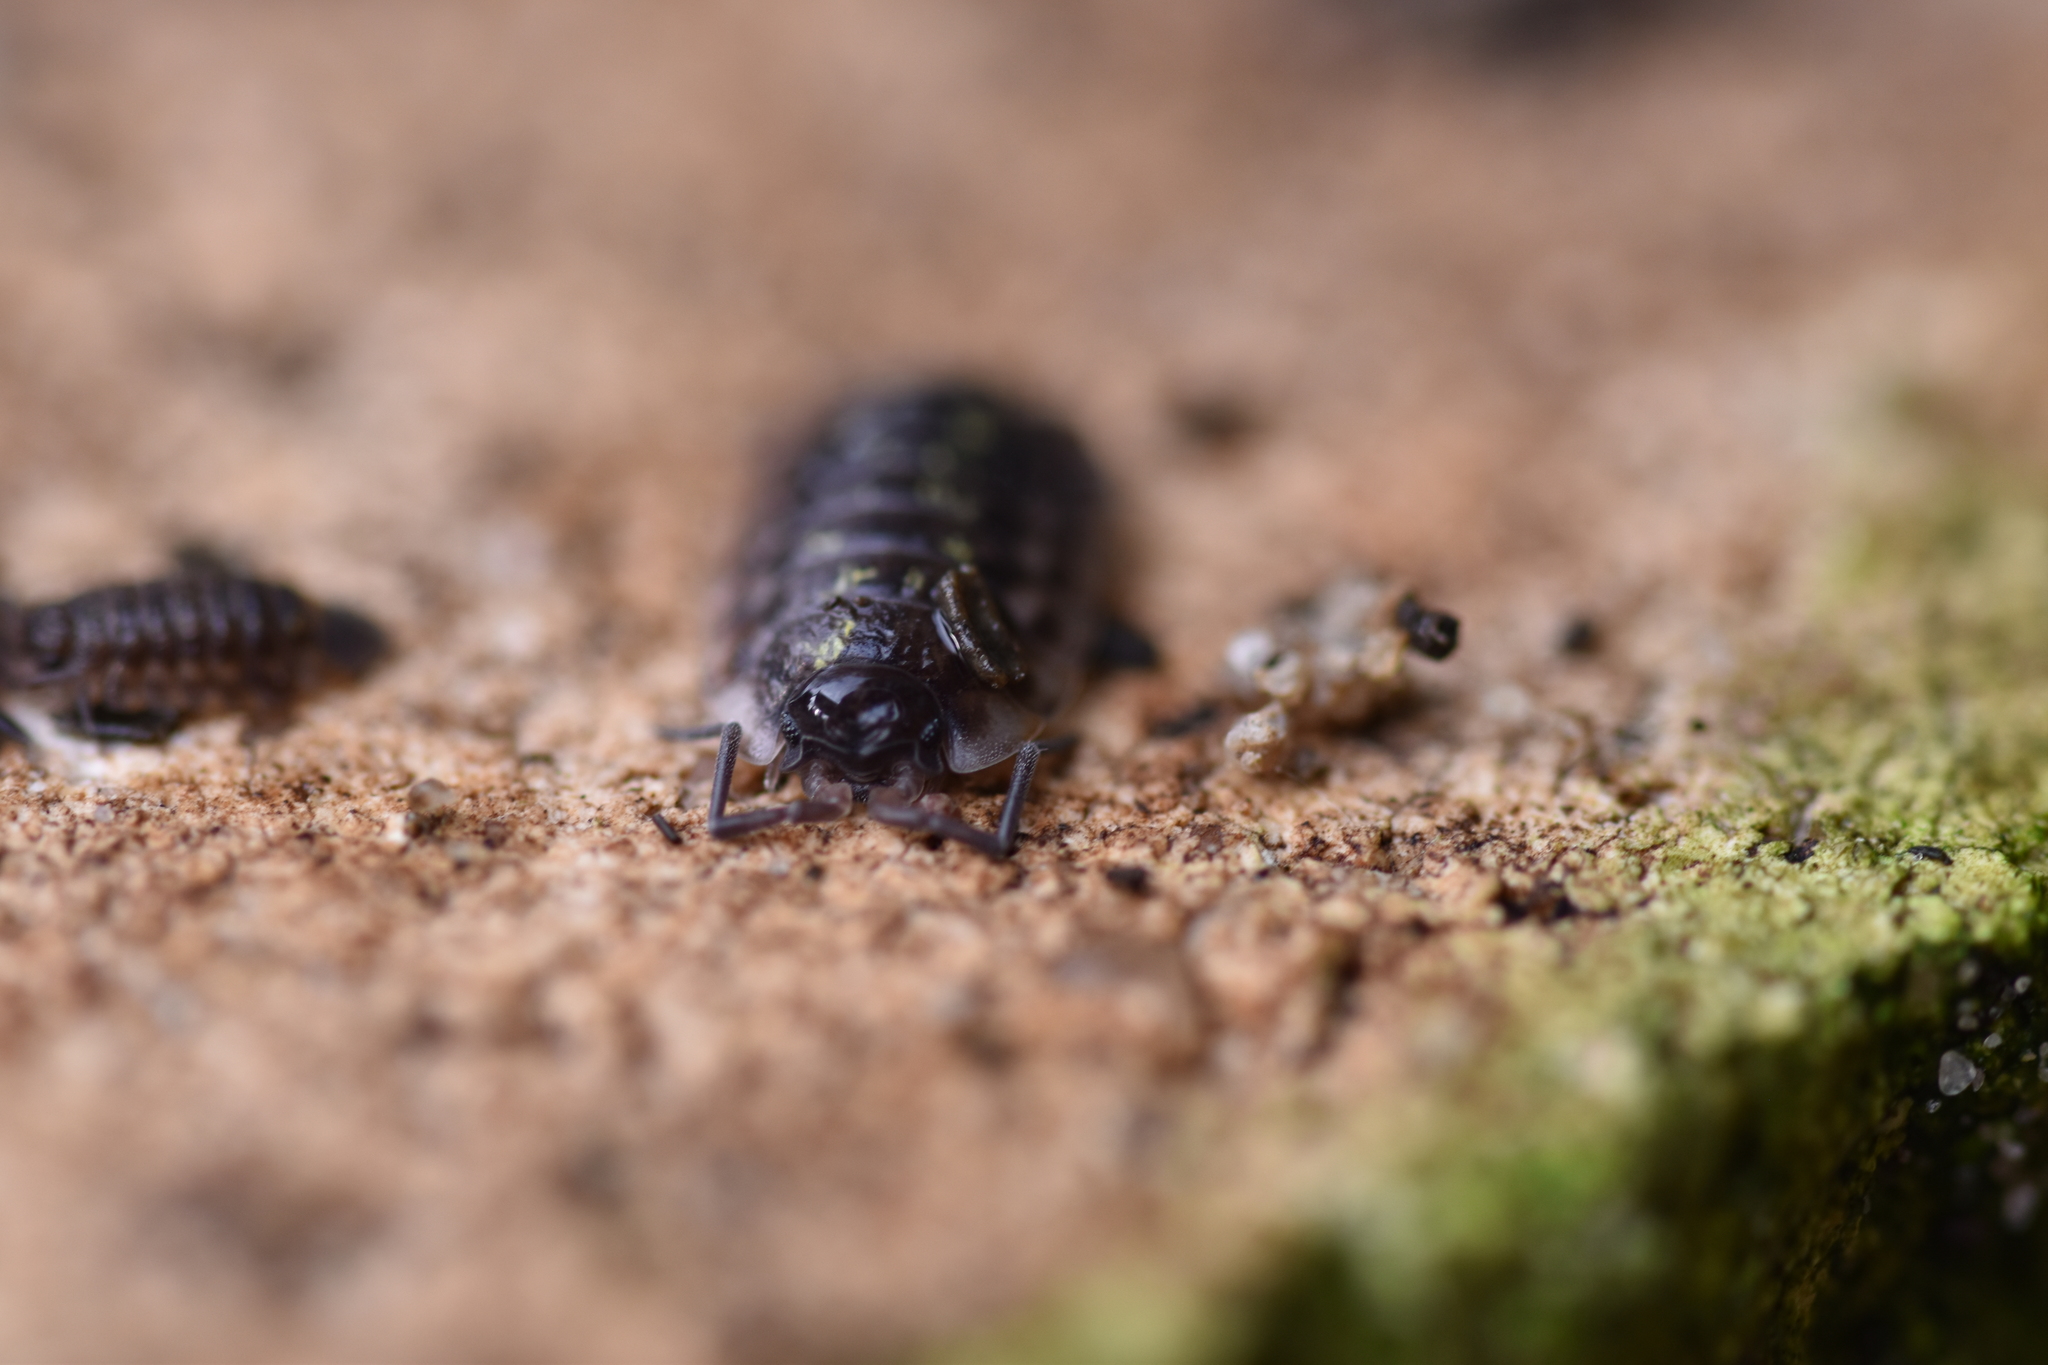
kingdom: Animalia
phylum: Arthropoda
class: Malacostraca
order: Isopoda
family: Oniscidae
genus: Oniscus
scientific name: Oniscus asellus
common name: Common shiny woodlouse
